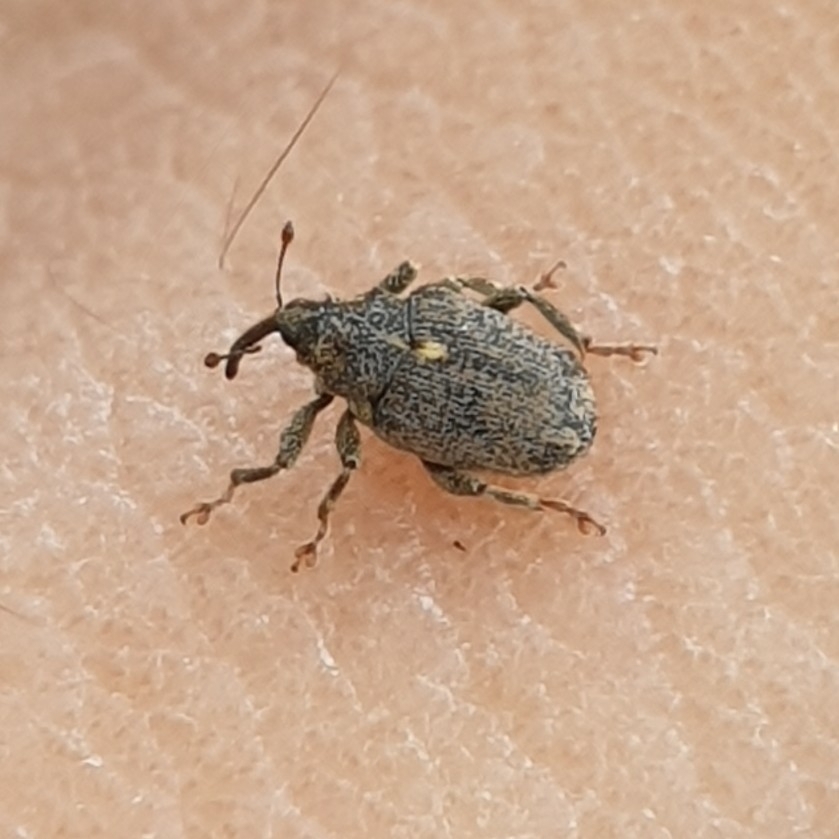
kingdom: Animalia
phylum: Arthropoda
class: Insecta
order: Coleoptera
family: Curculionidae
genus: Ceutorhynchus
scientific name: Ceutorhynchus pallidactylus
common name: Cabbage stem weavil
